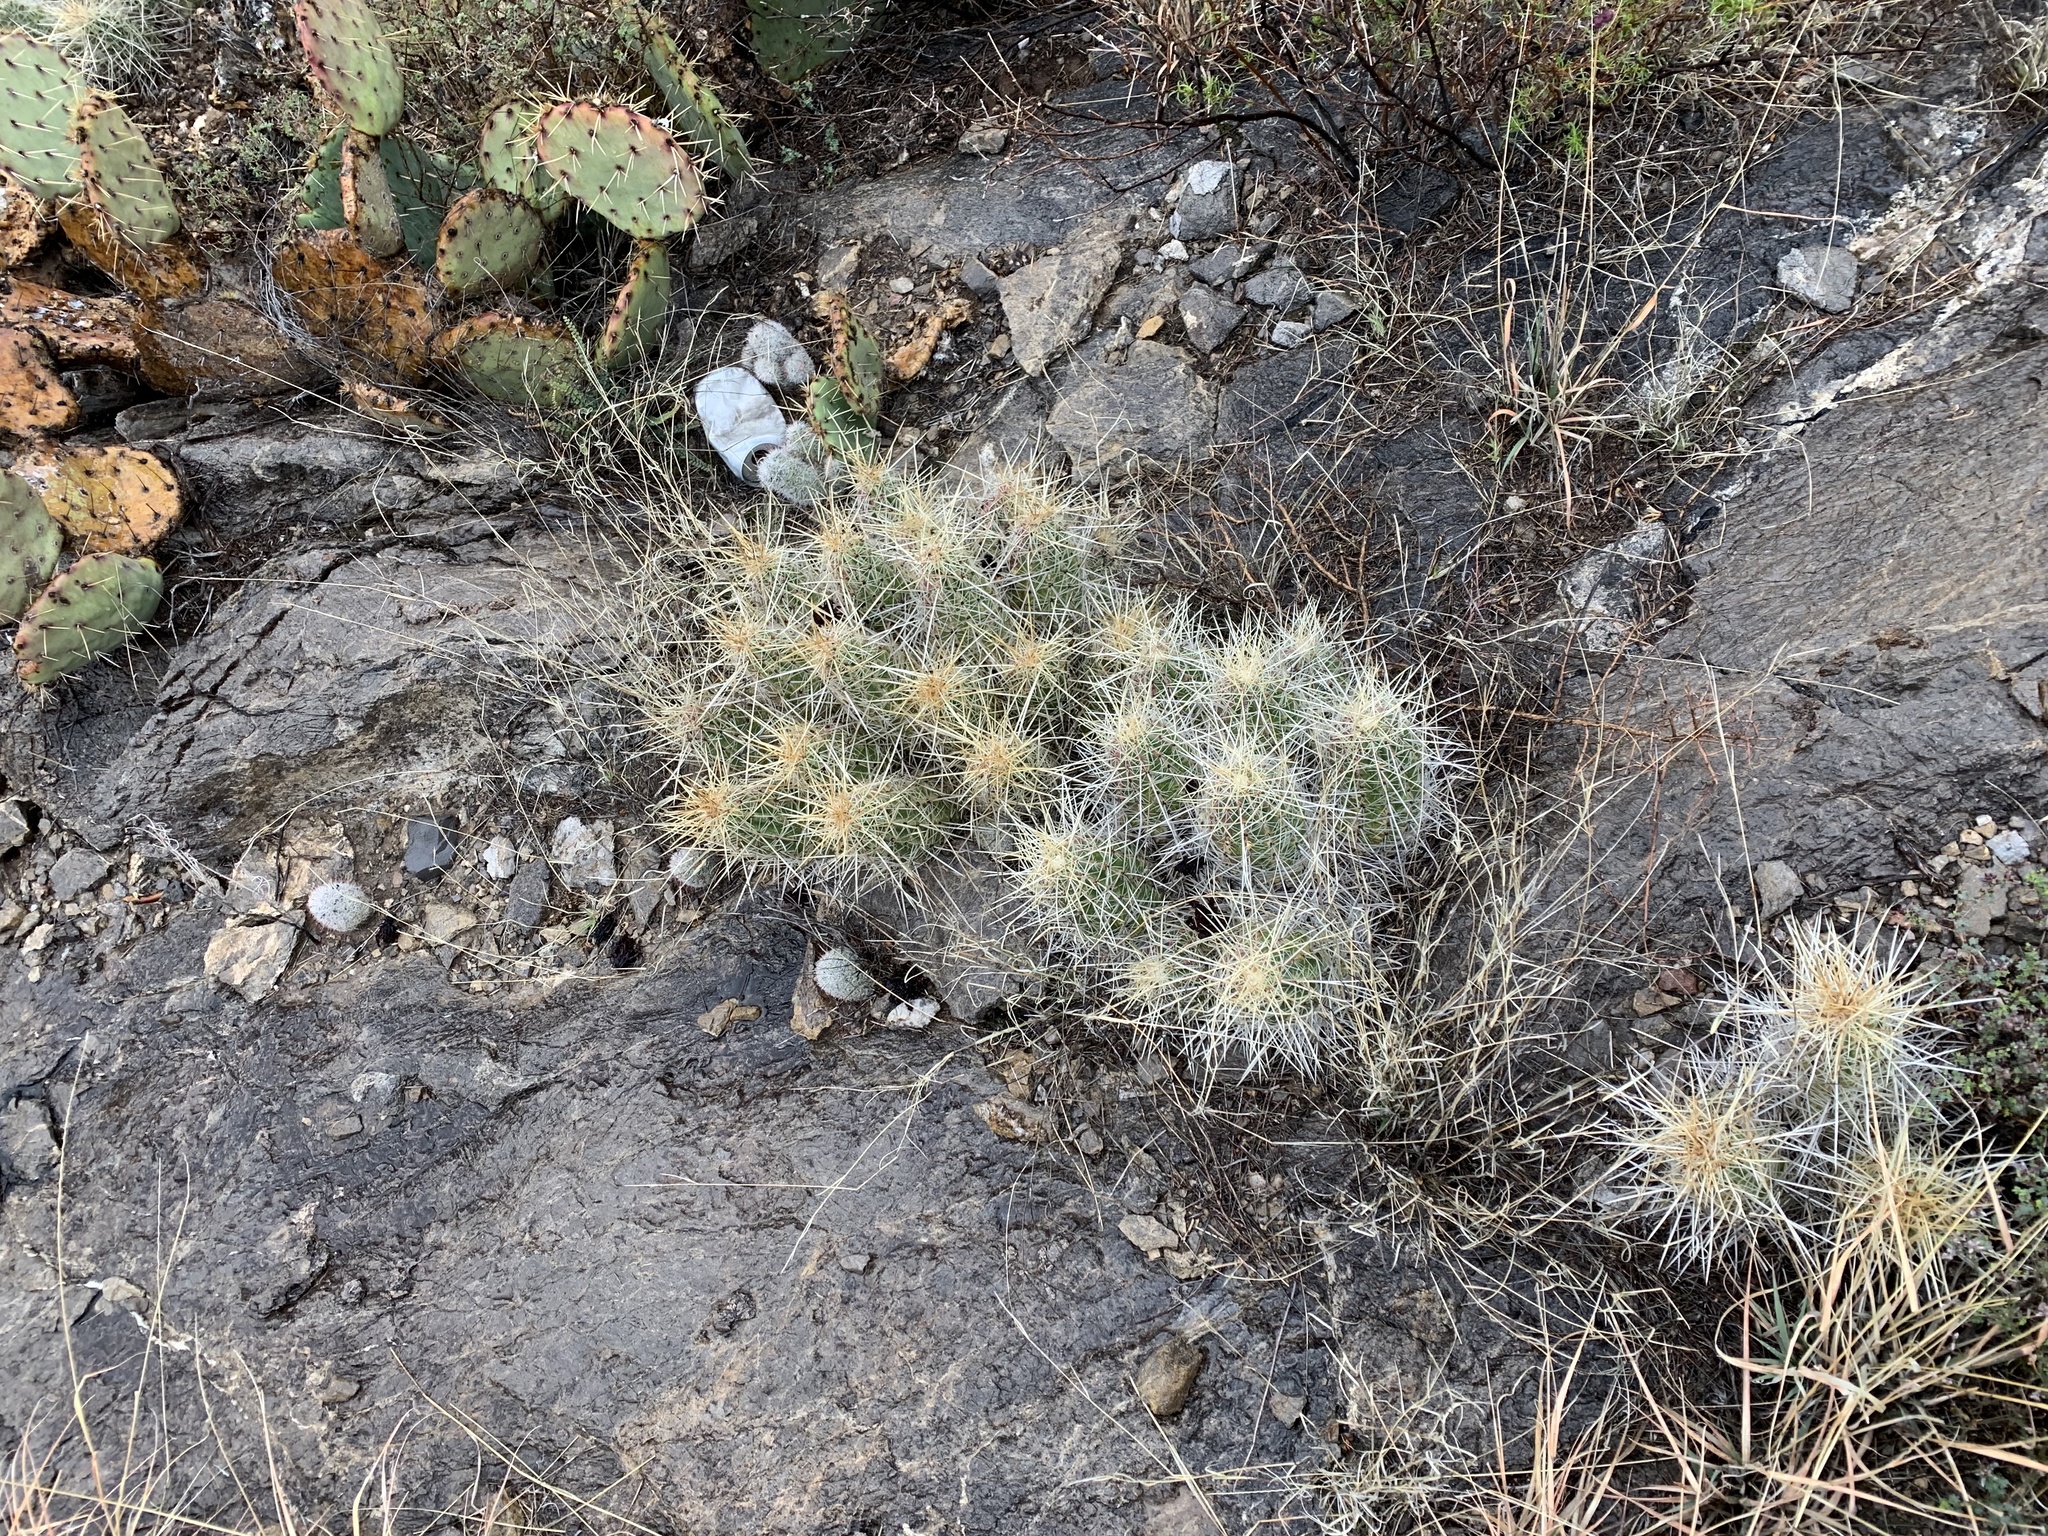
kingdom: Plantae
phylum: Tracheophyta
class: Magnoliopsida
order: Caryophyllales
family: Cactaceae
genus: Echinocereus
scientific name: Echinocereus stramineus
